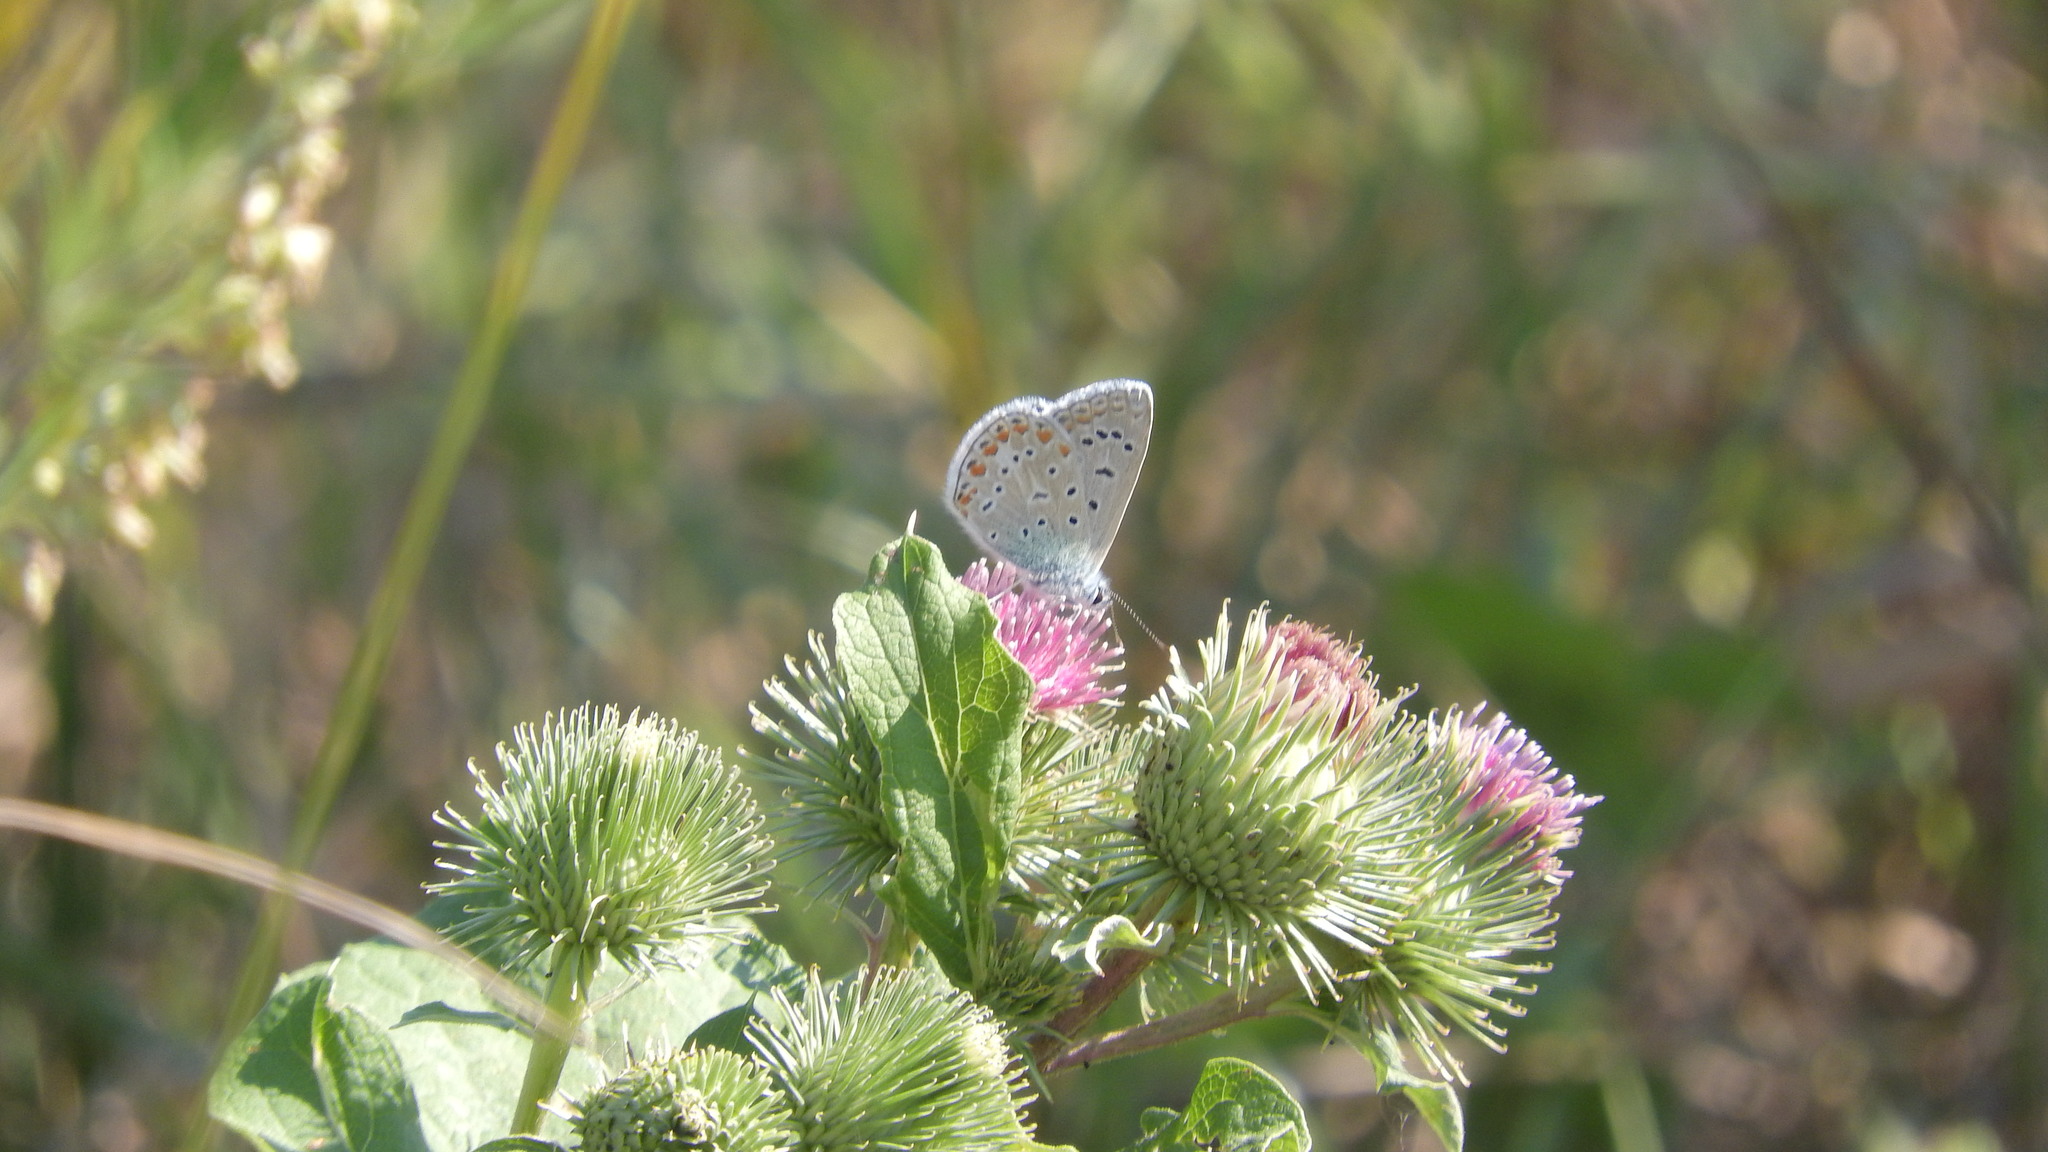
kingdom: Animalia
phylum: Arthropoda
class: Insecta
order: Lepidoptera
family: Lycaenidae
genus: Polyommatus
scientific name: Polyommatus icarus
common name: Common blue
